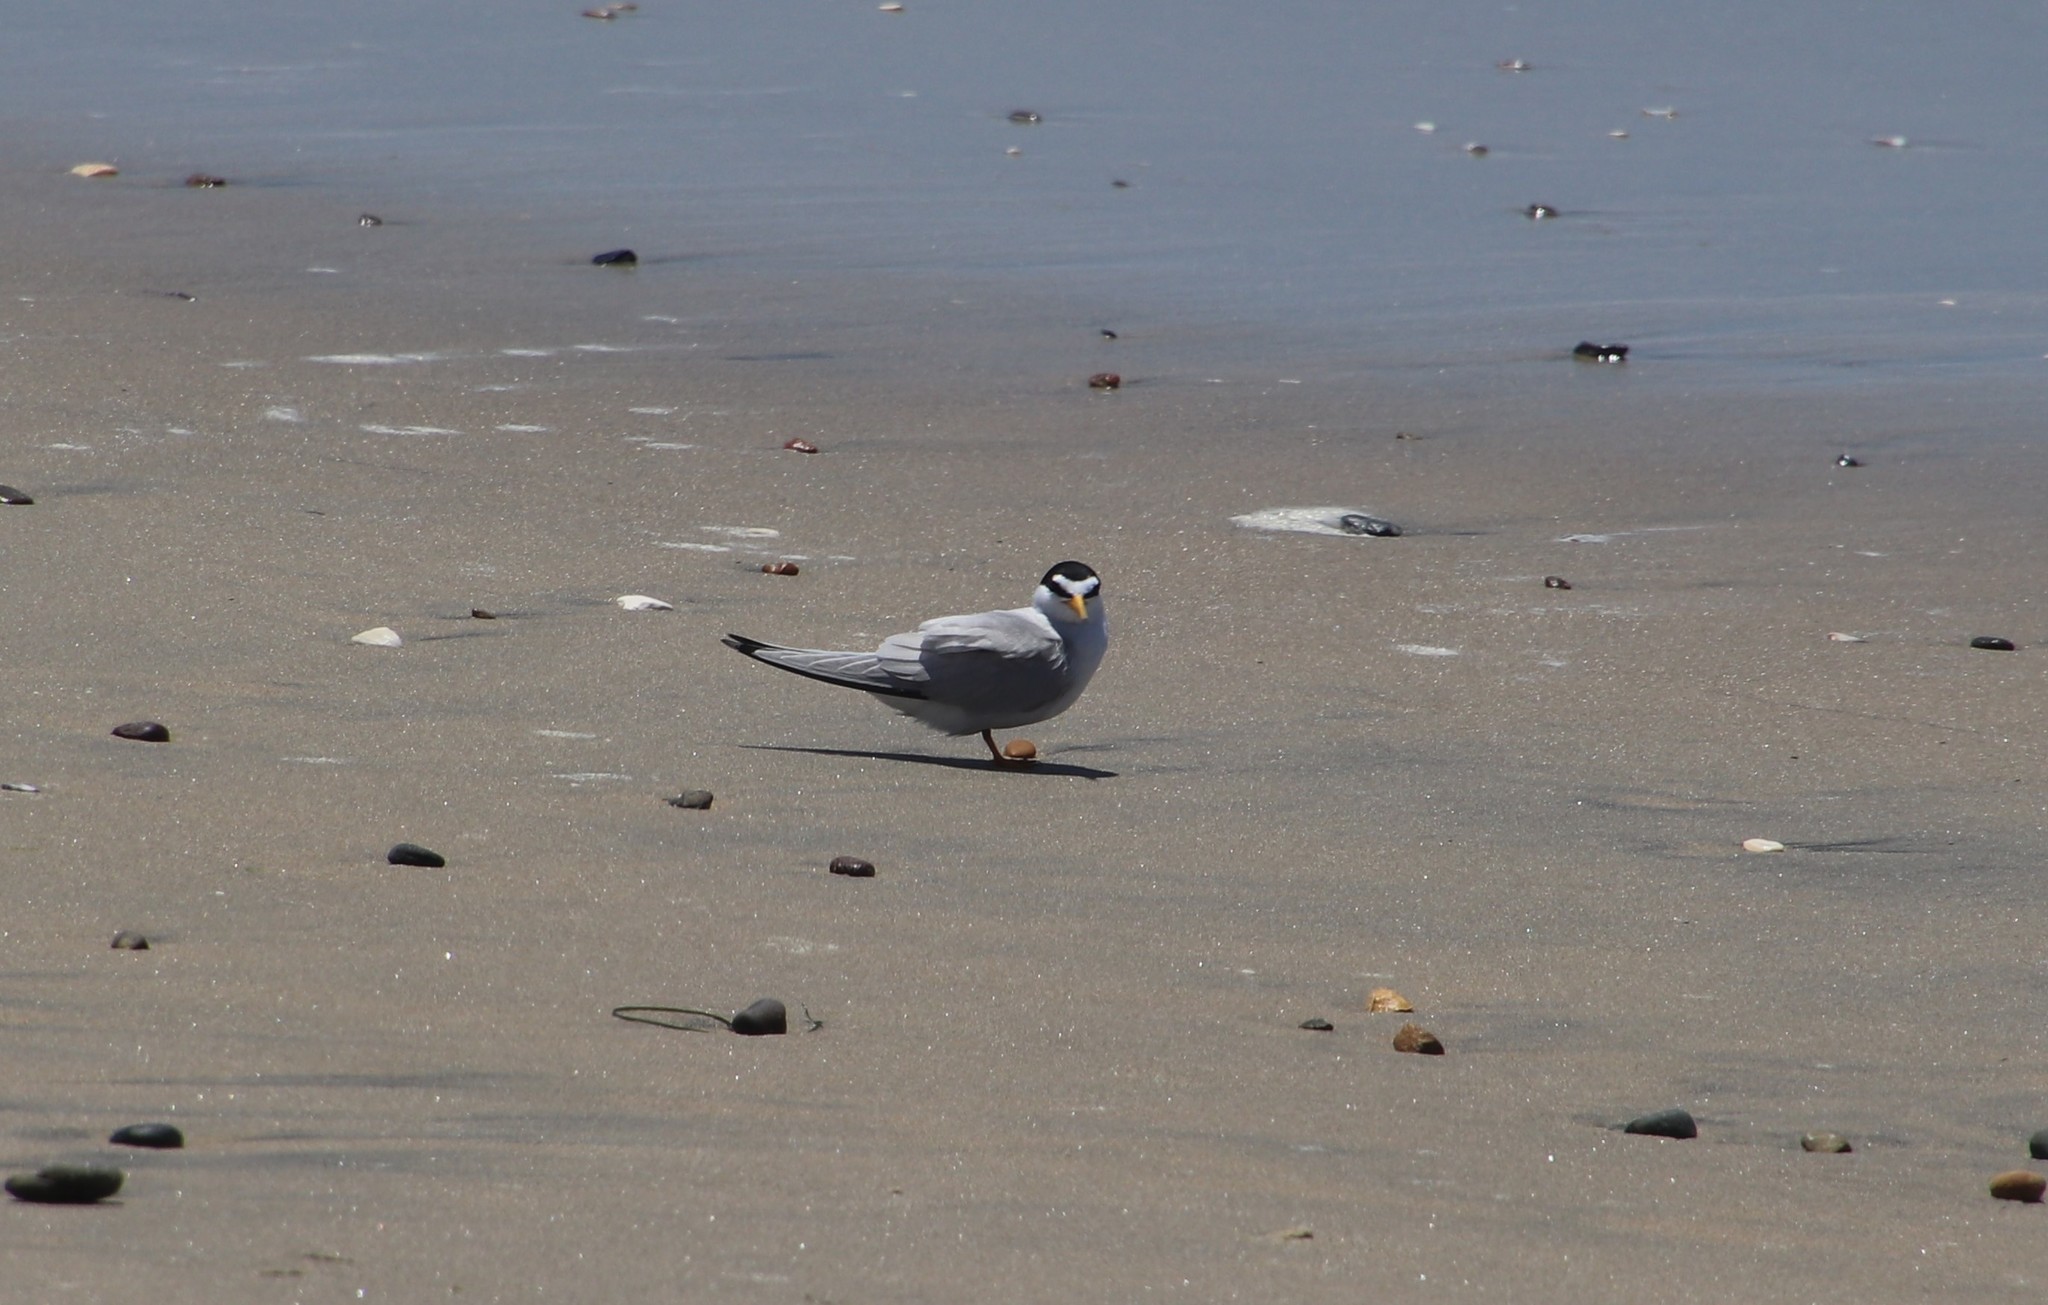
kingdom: Animalia
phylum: Chordata
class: Aves
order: Charadriiformes
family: Laridae
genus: Sternula
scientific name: Sternula antillarum
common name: Least tern
